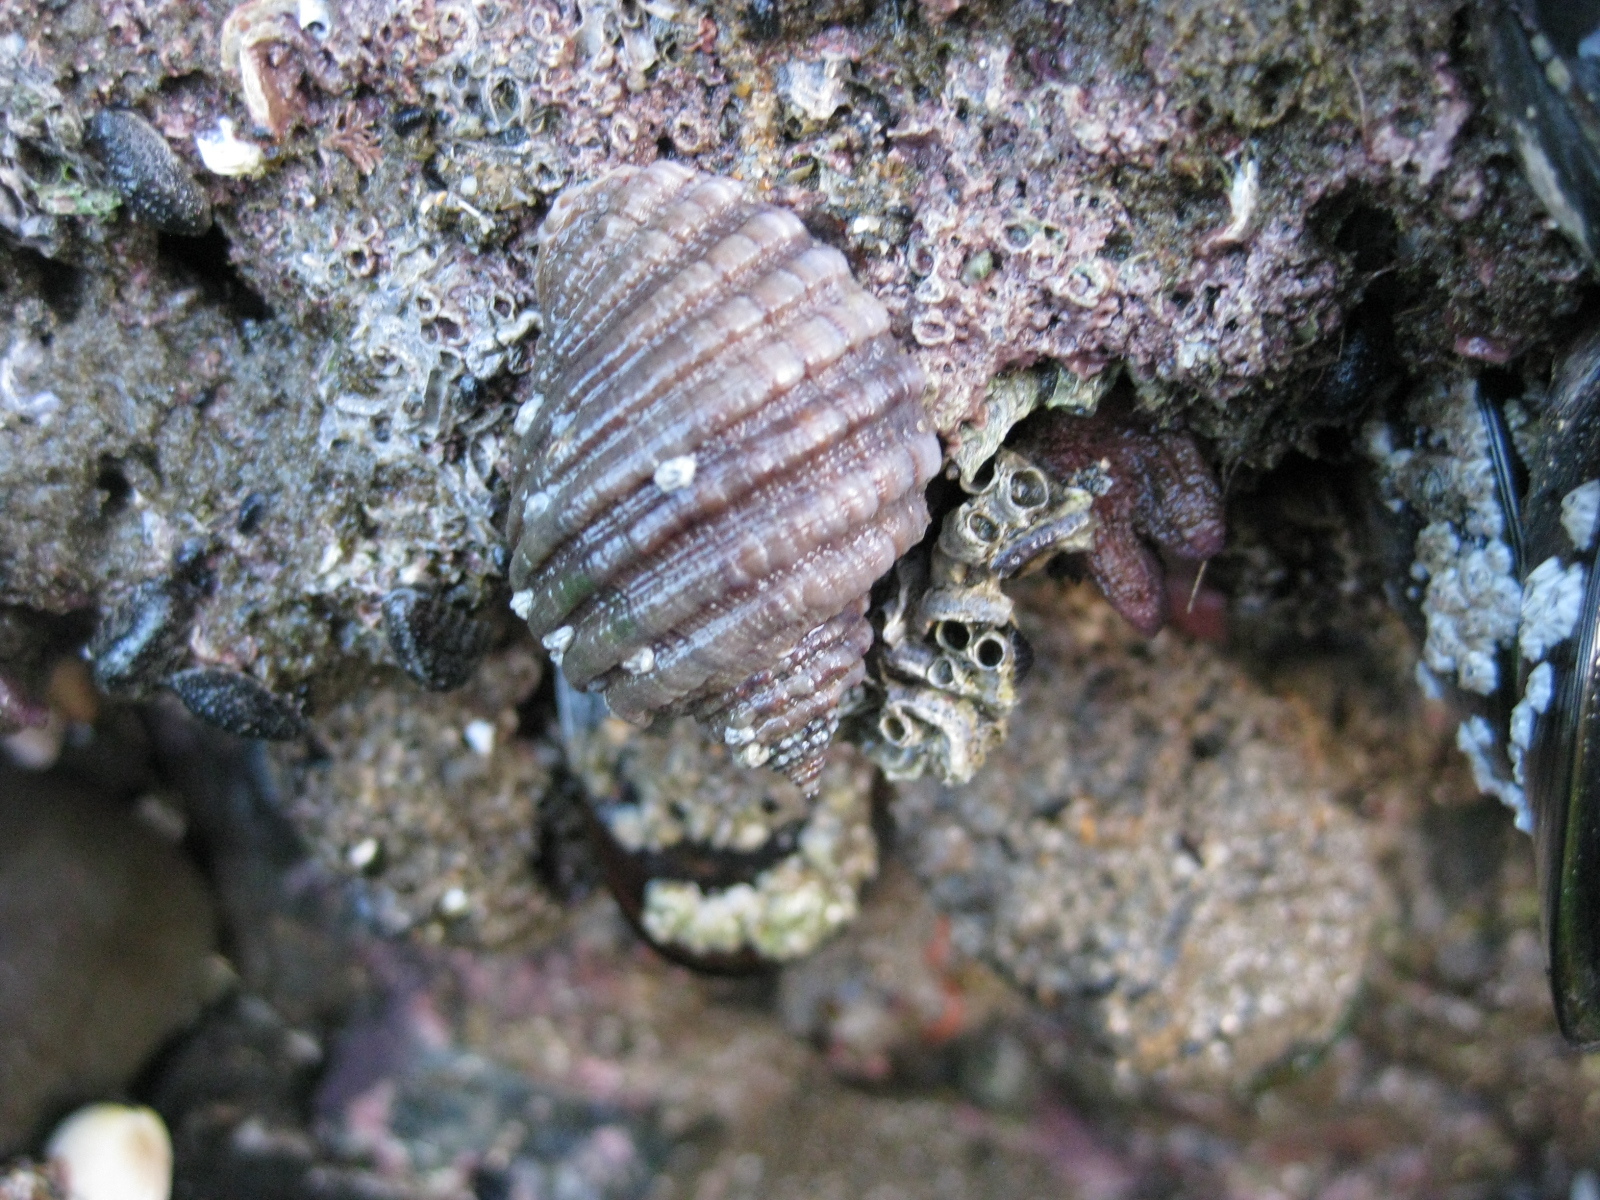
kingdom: Animalia
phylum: Mollusca
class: Gastropoda
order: Neogastropoda
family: Muricidae
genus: Dicathais
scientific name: Dicathais orbita
